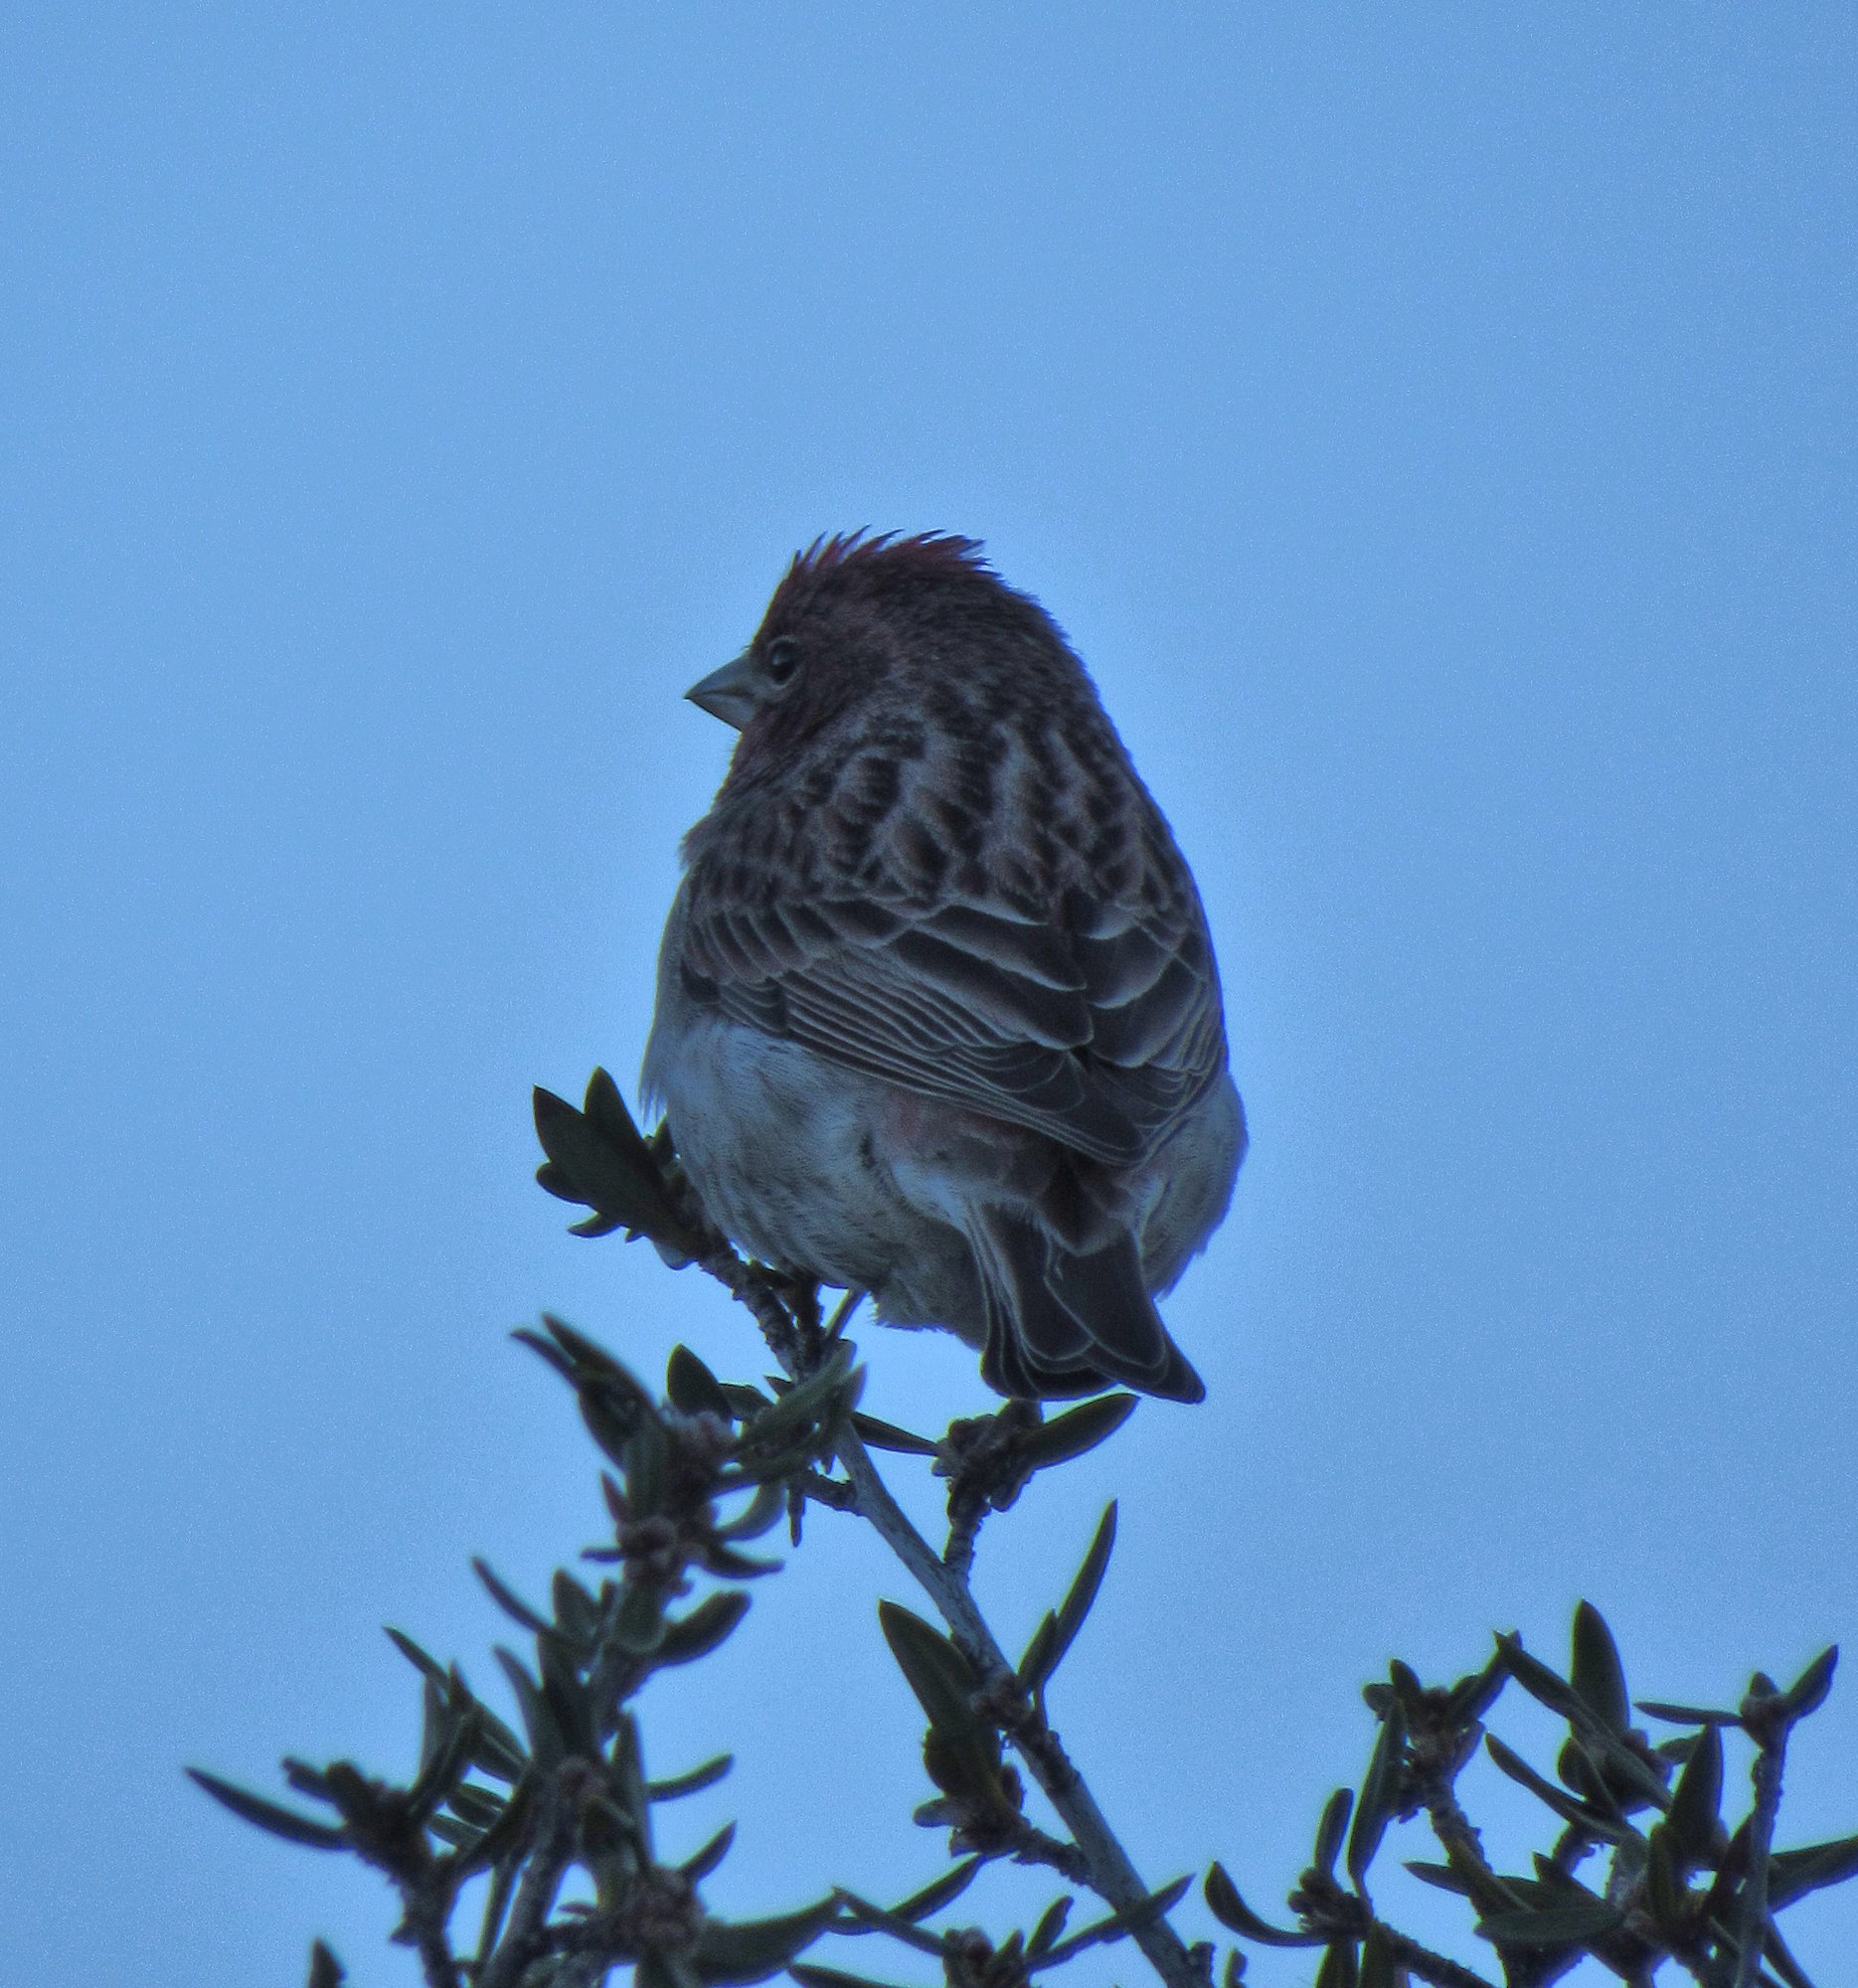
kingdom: Animalia
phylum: Chordata
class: Aves
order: Passeriformes
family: Fringillidae
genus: Haemorhous
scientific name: Haemorhous cassinii
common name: Cassin's finch
